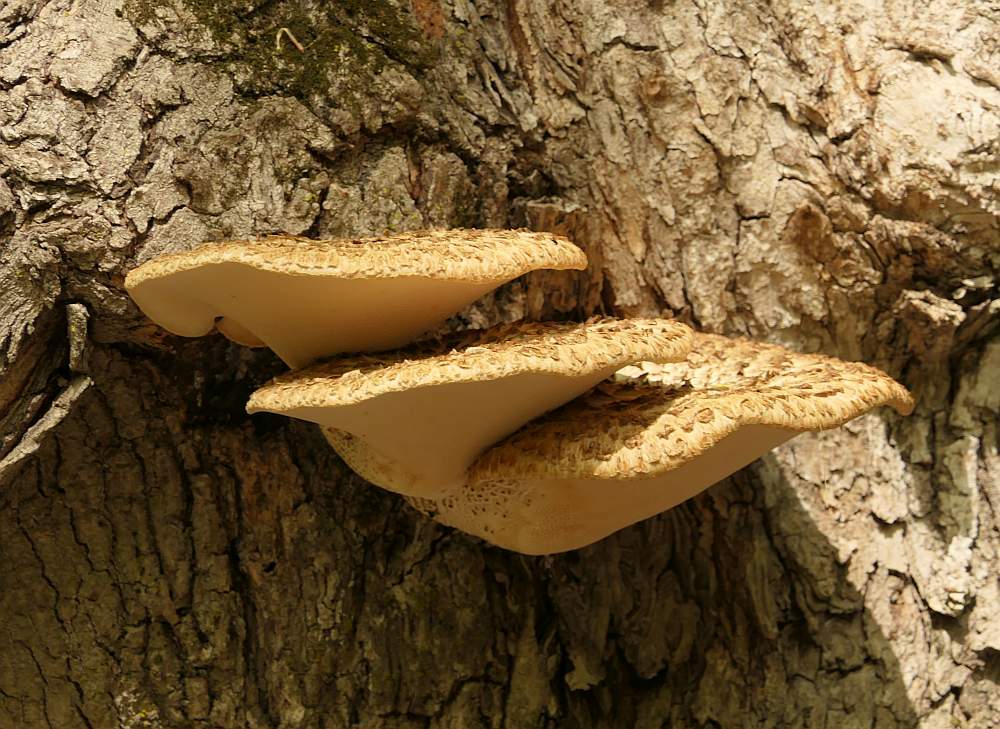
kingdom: Fungi
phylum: Basidiomycota
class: Agaricomycetes
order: Polyporales
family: Polyporaceae
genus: Cerioporus
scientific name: Cerioporus squamosus
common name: Dryad's saddle
